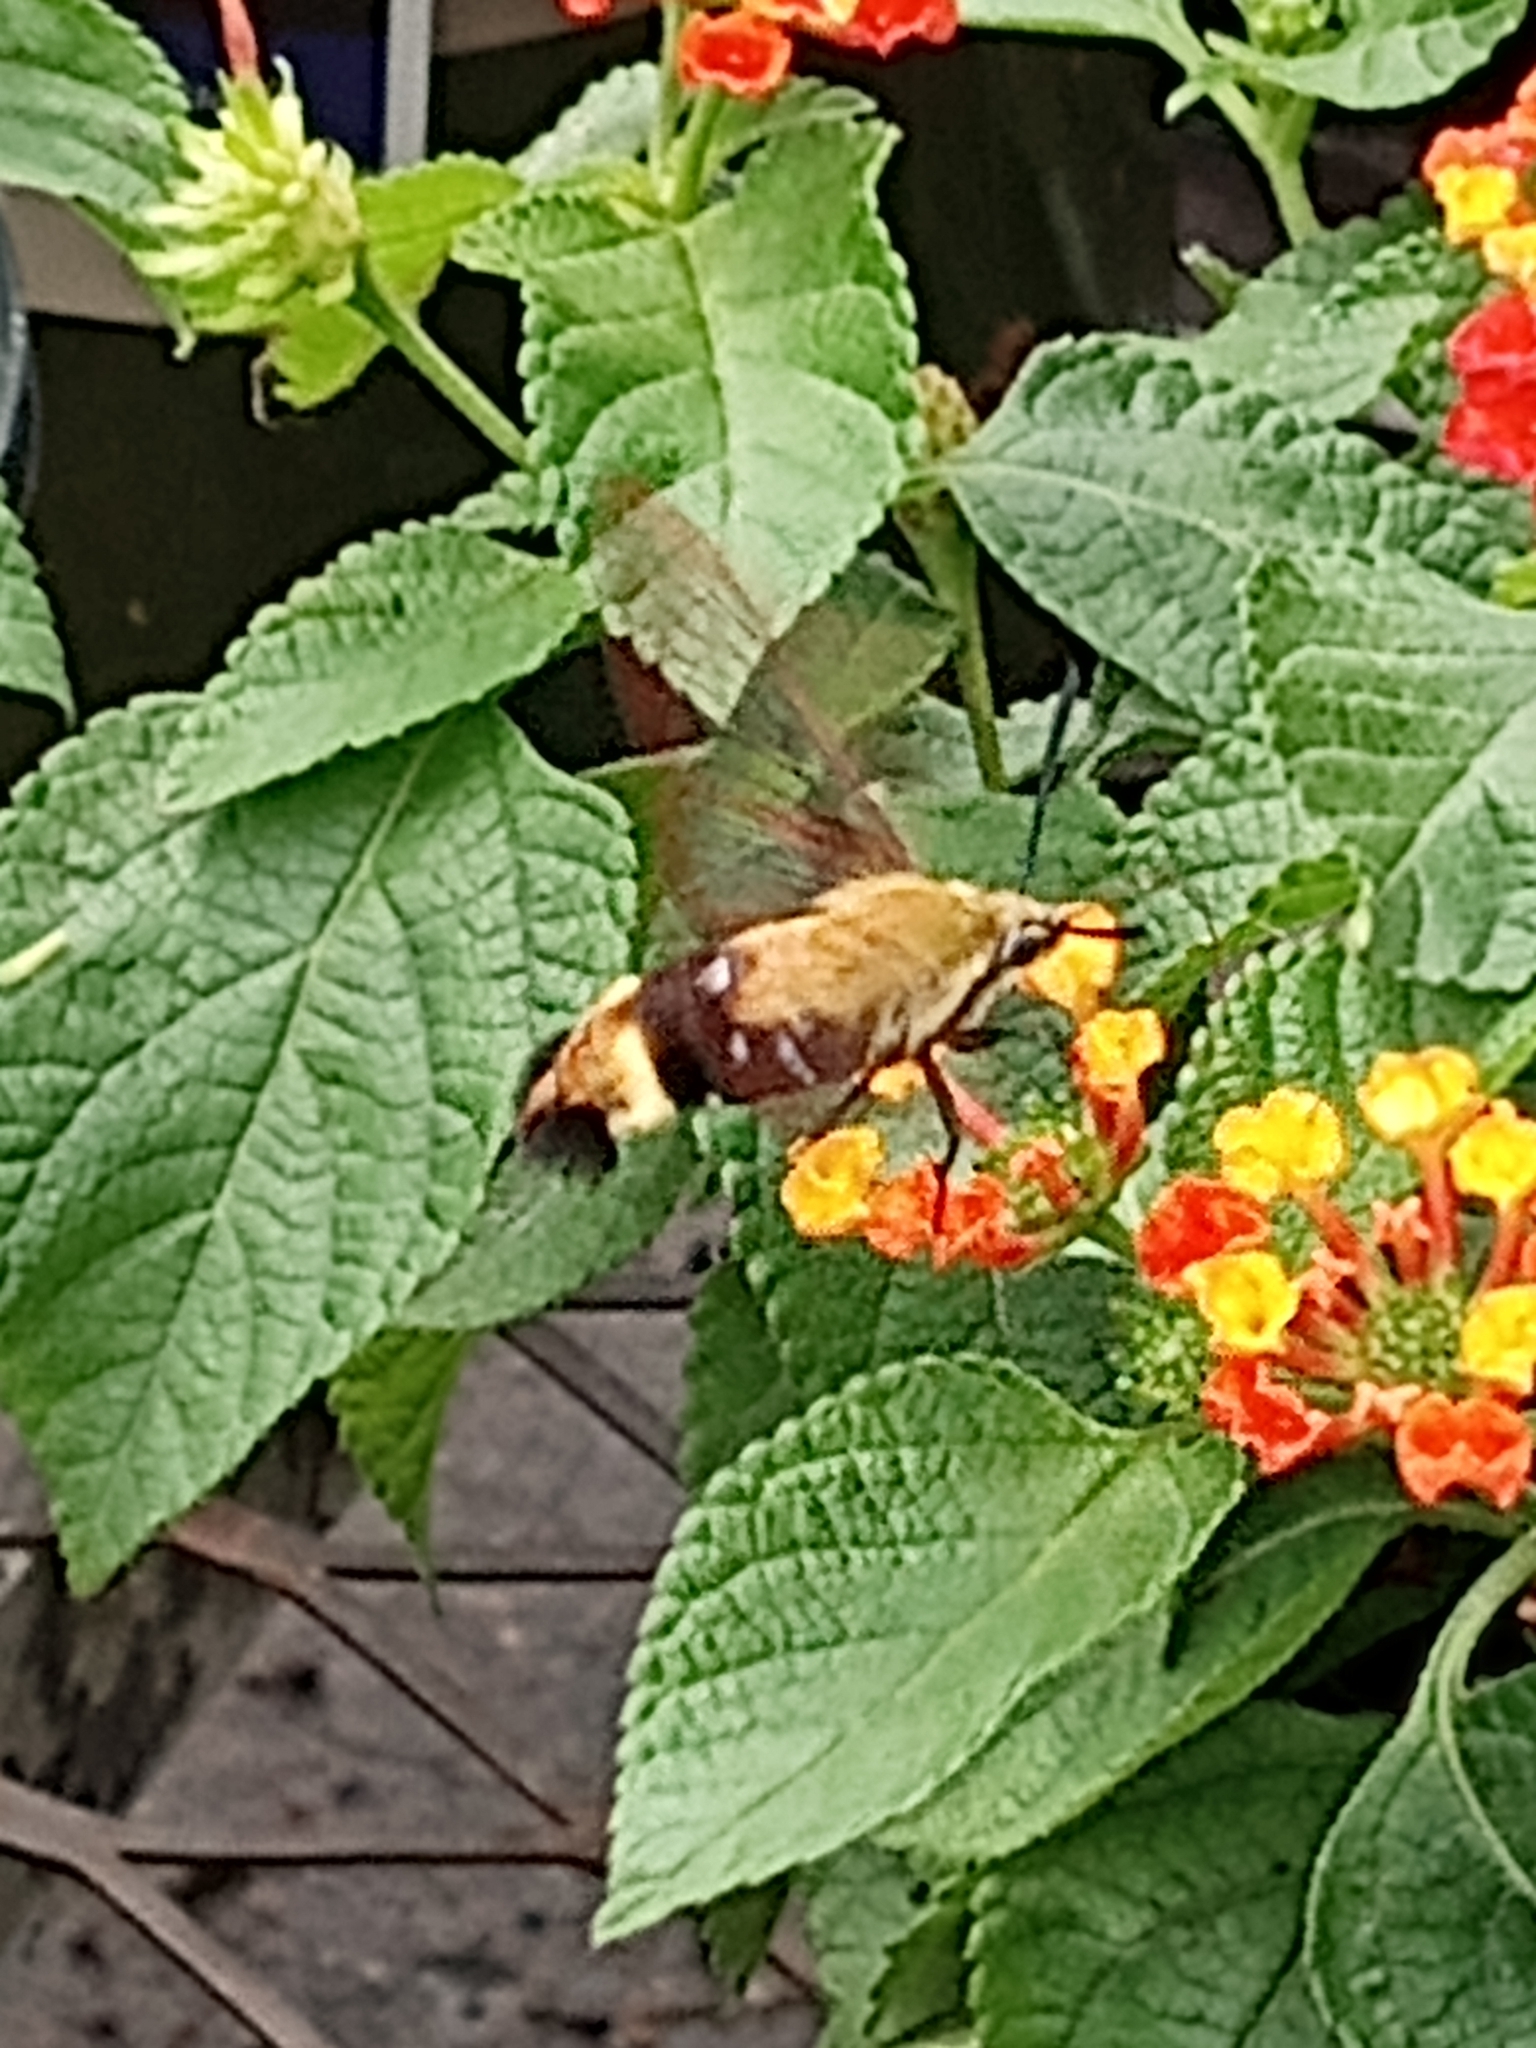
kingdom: Animalia
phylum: Arthropoda
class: Insecta
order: Lepidoptera
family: Sphingidae
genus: Hemaris
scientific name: Hemaris diffinis
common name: Bumblebee moth
